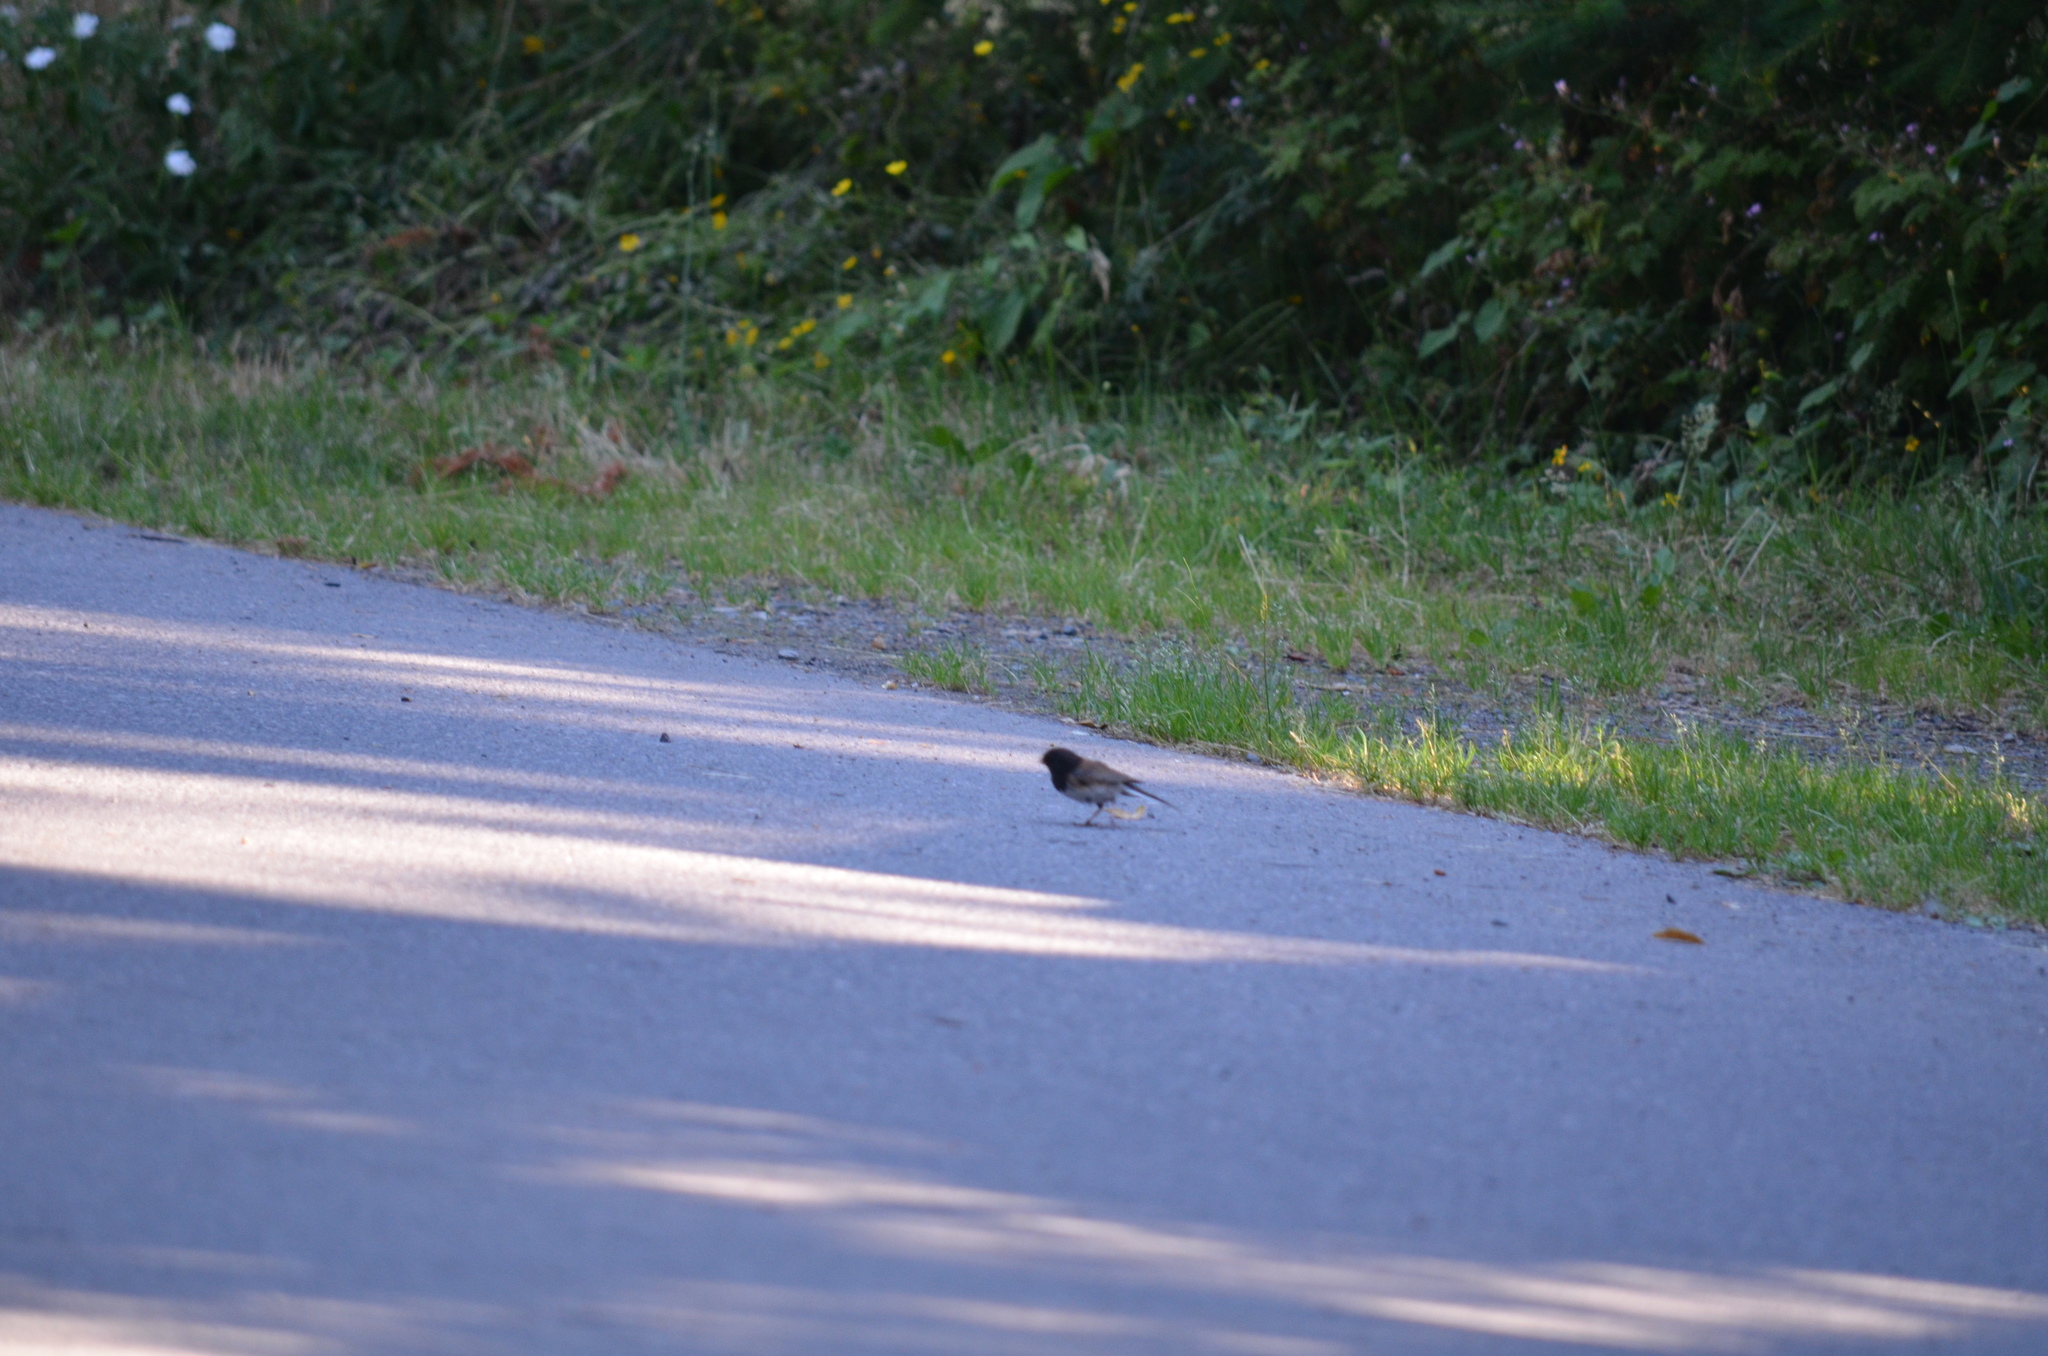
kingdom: Animalia
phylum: Chordata
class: Aves
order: Passeriformes
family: Passerellidae
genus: Junco
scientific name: Junco hyemalis
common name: Dark-eyed junco
